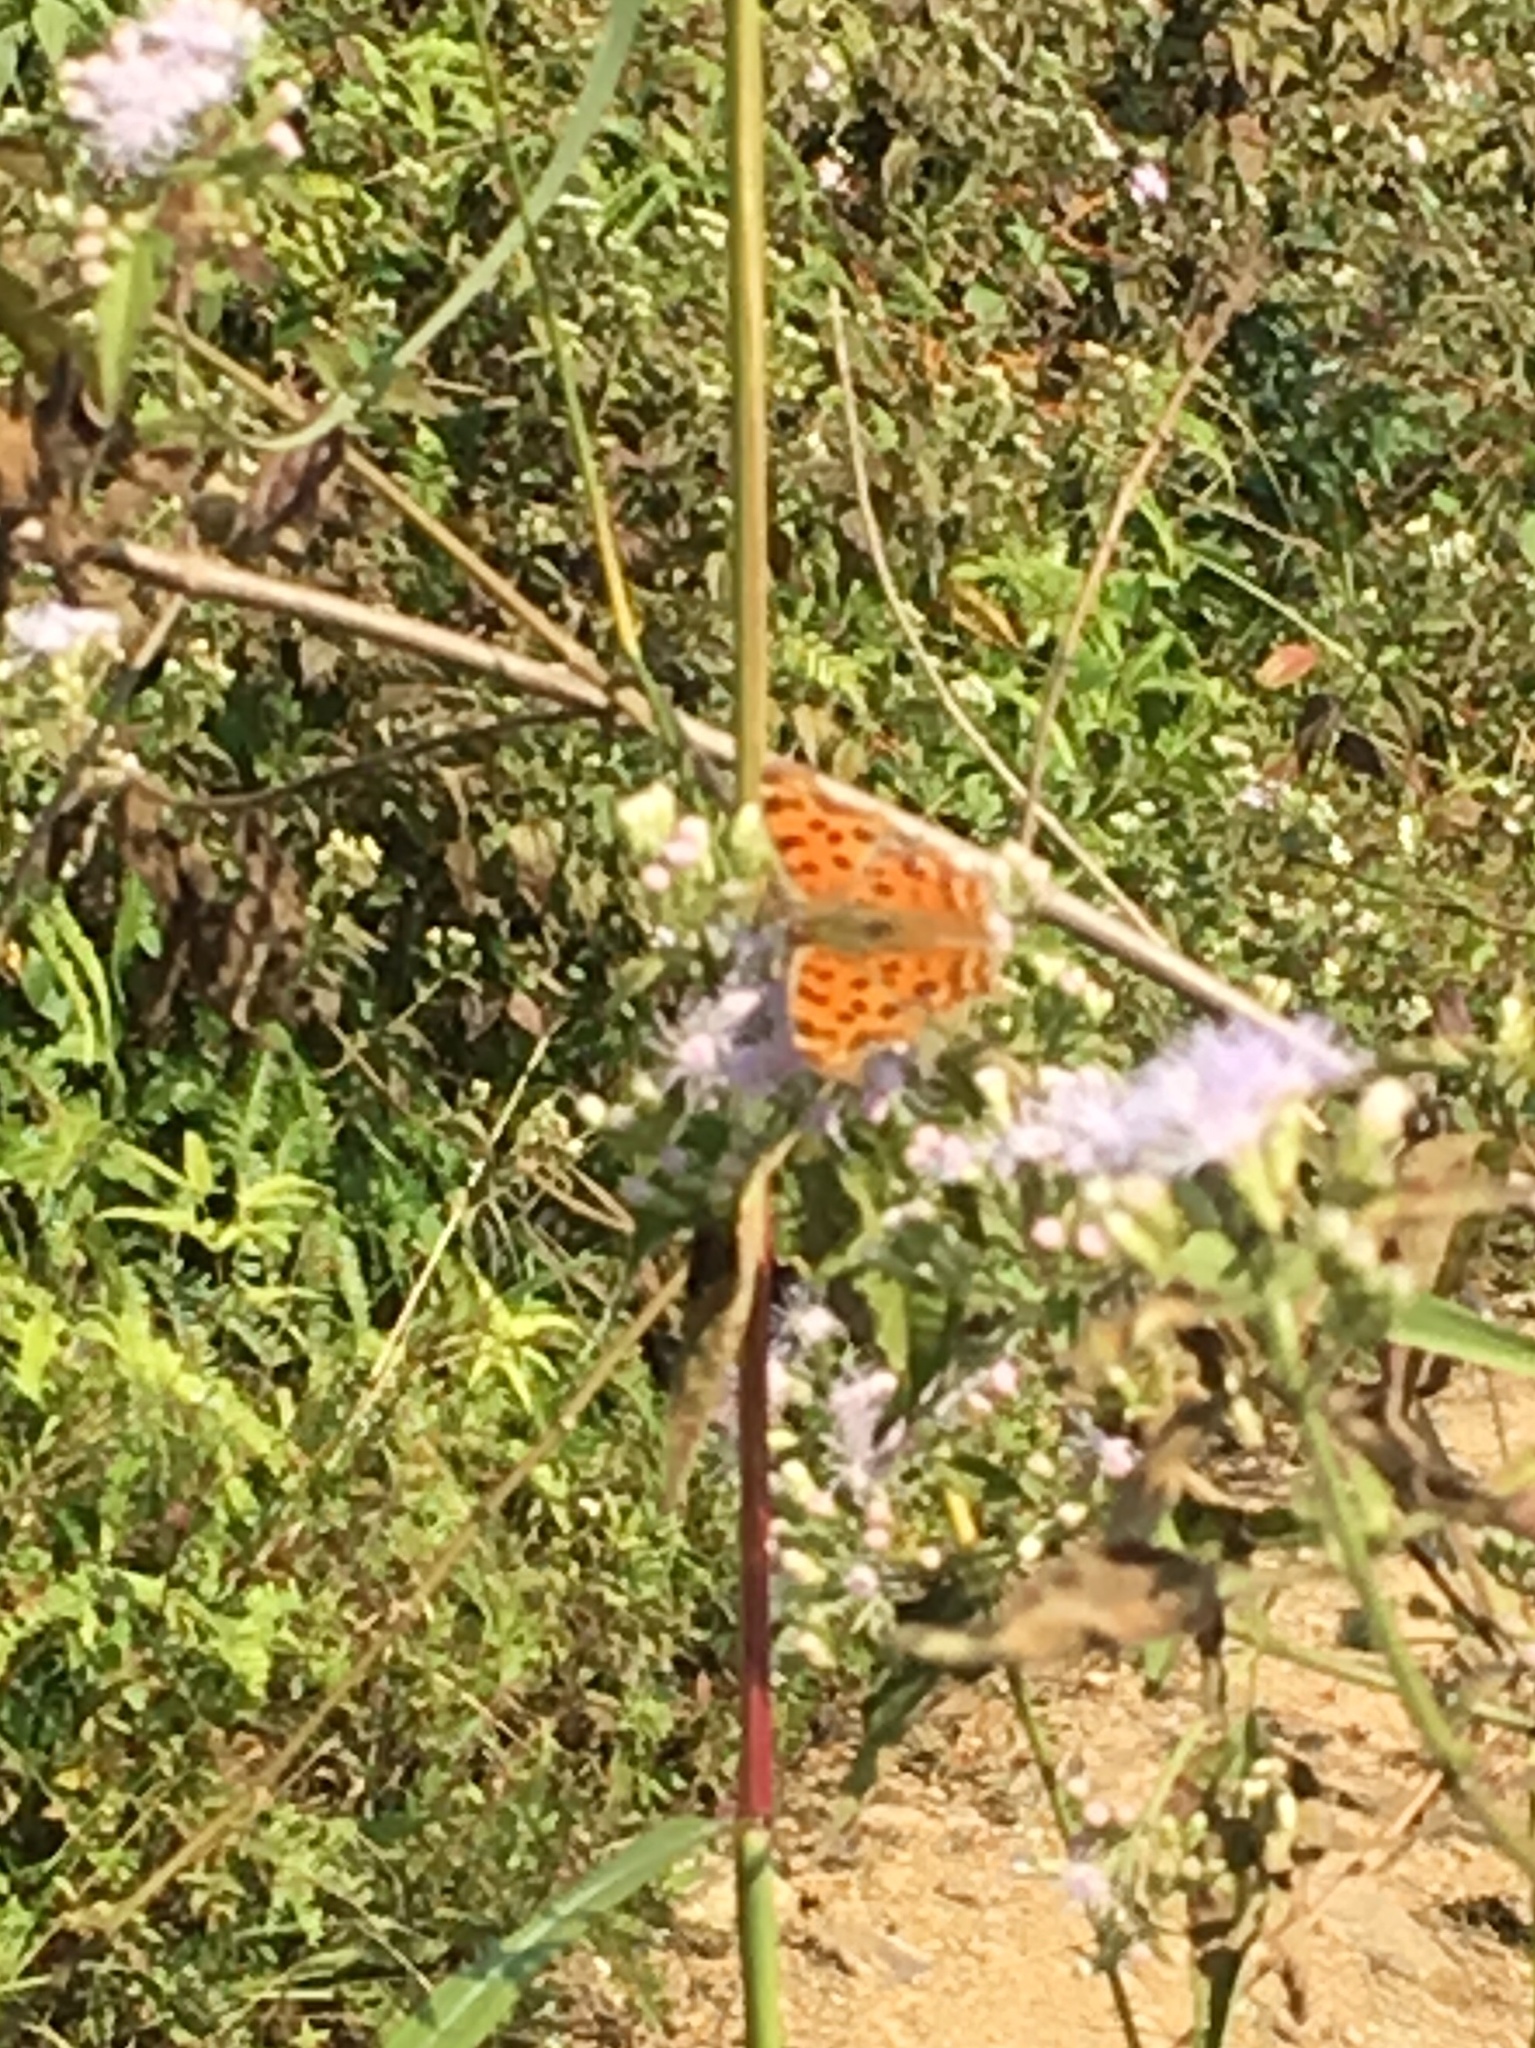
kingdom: Animalia
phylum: Arthropoda
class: Insecta
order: Lepidoptera
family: Nymphalidae
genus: Polygonia
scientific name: Polygonia c-aureum
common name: Asian comma
